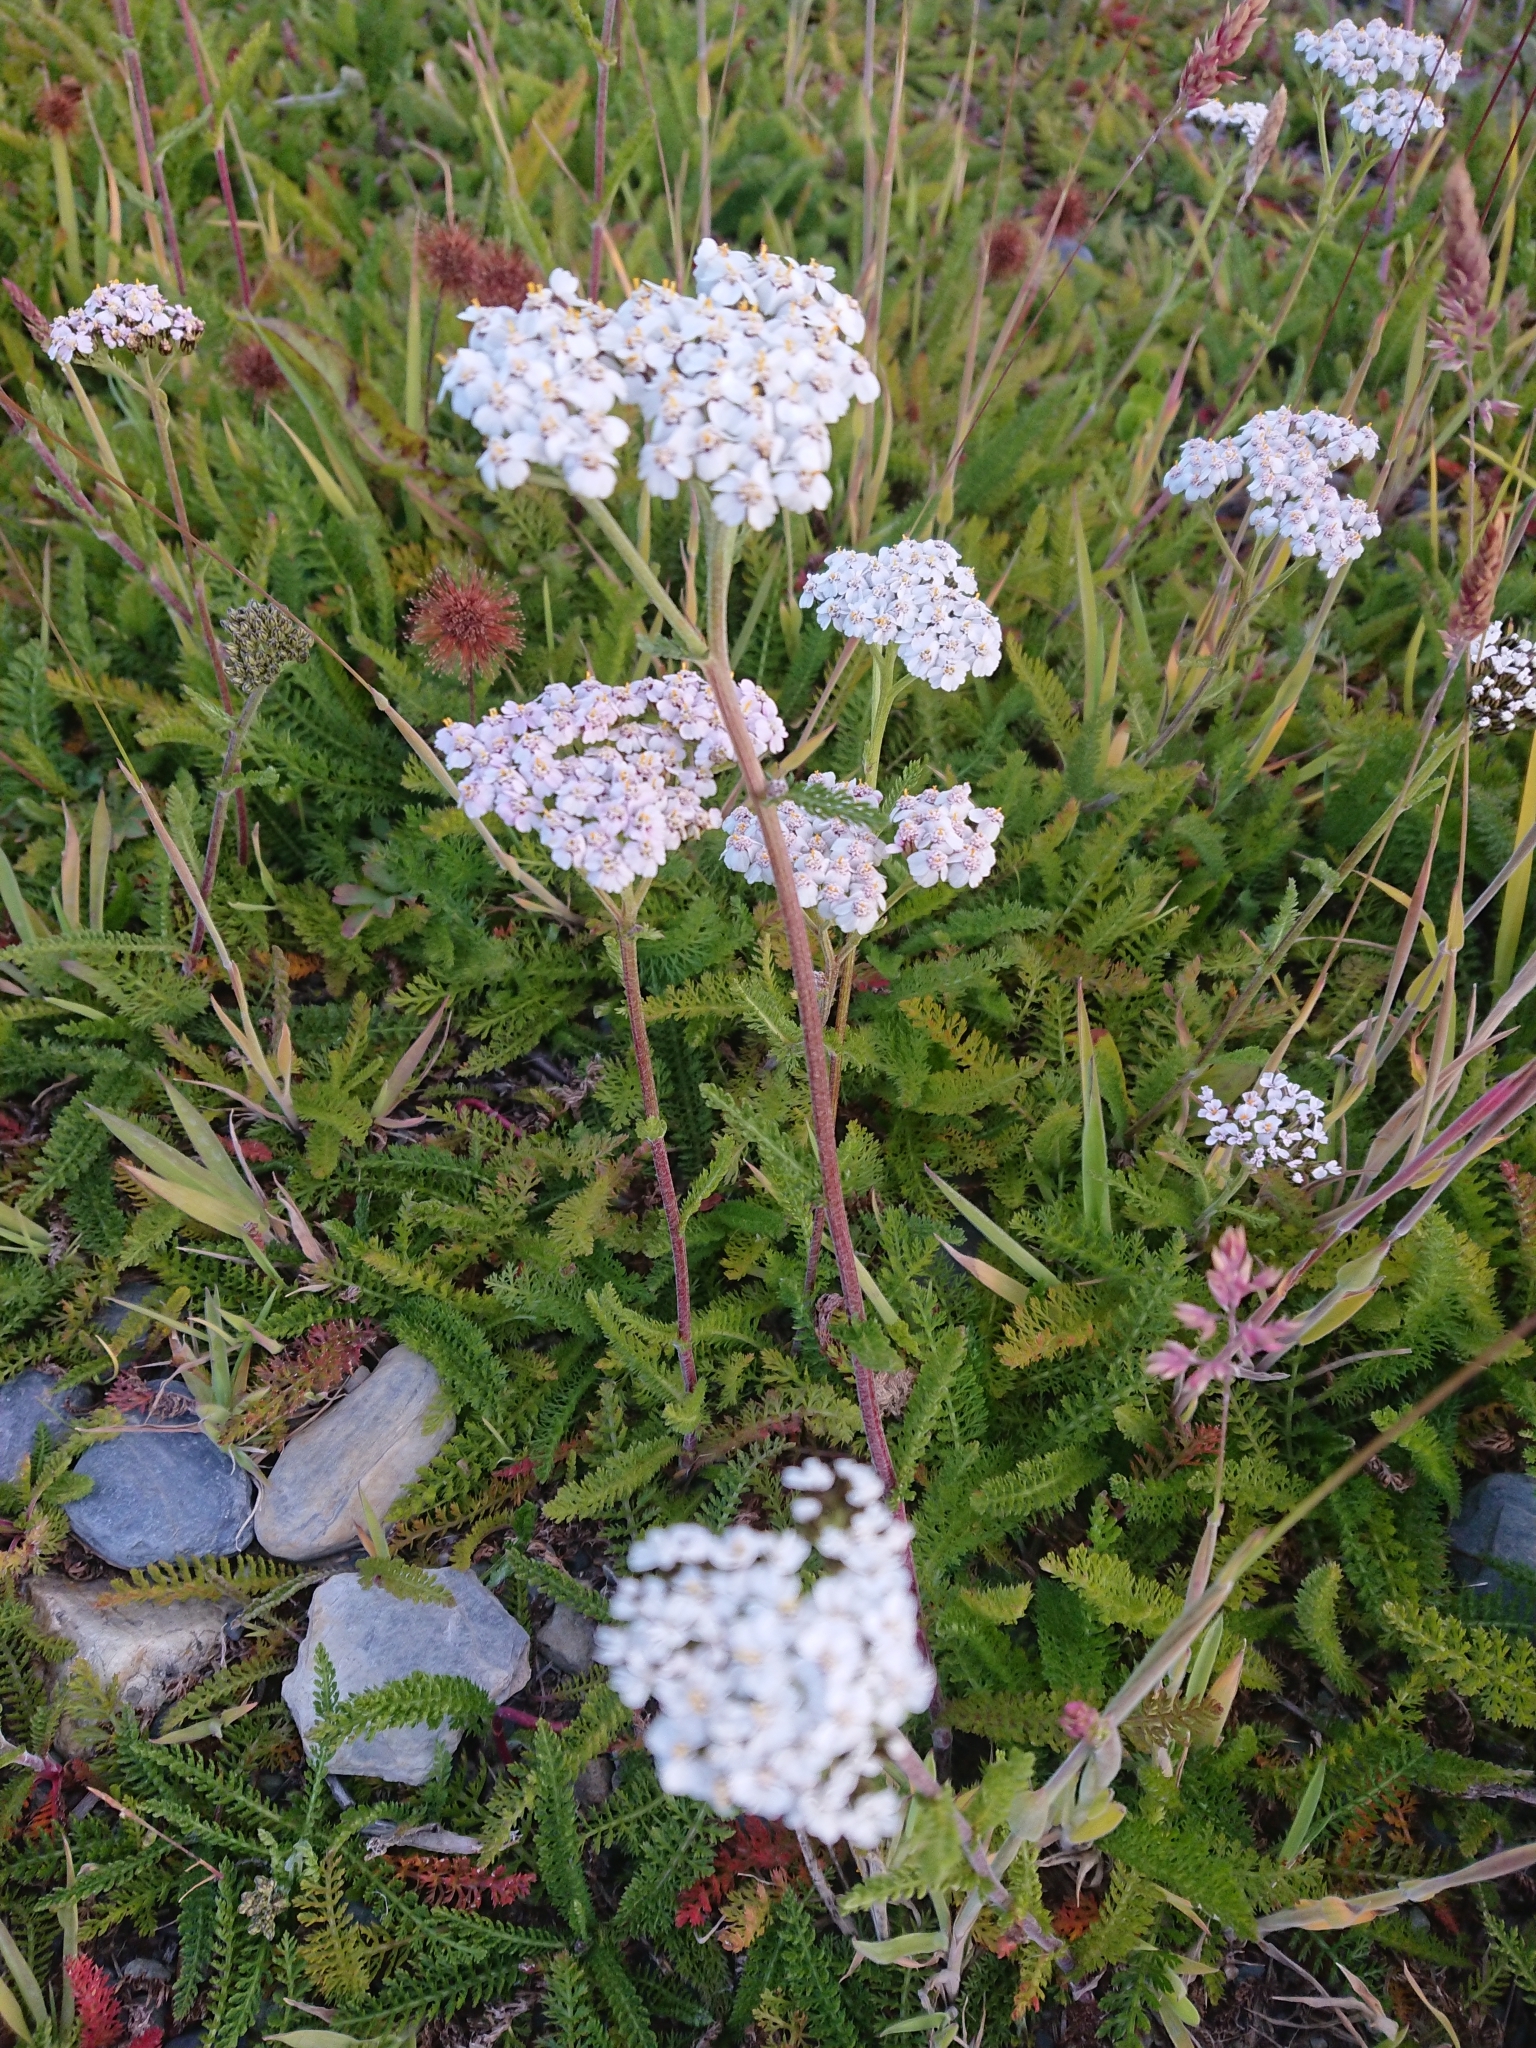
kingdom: Plantae
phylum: Tracheophyta
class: Magnoliopsida
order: Asterales
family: Asteraceae
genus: Achillea
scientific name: Achillea millefolium
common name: Yarrow
